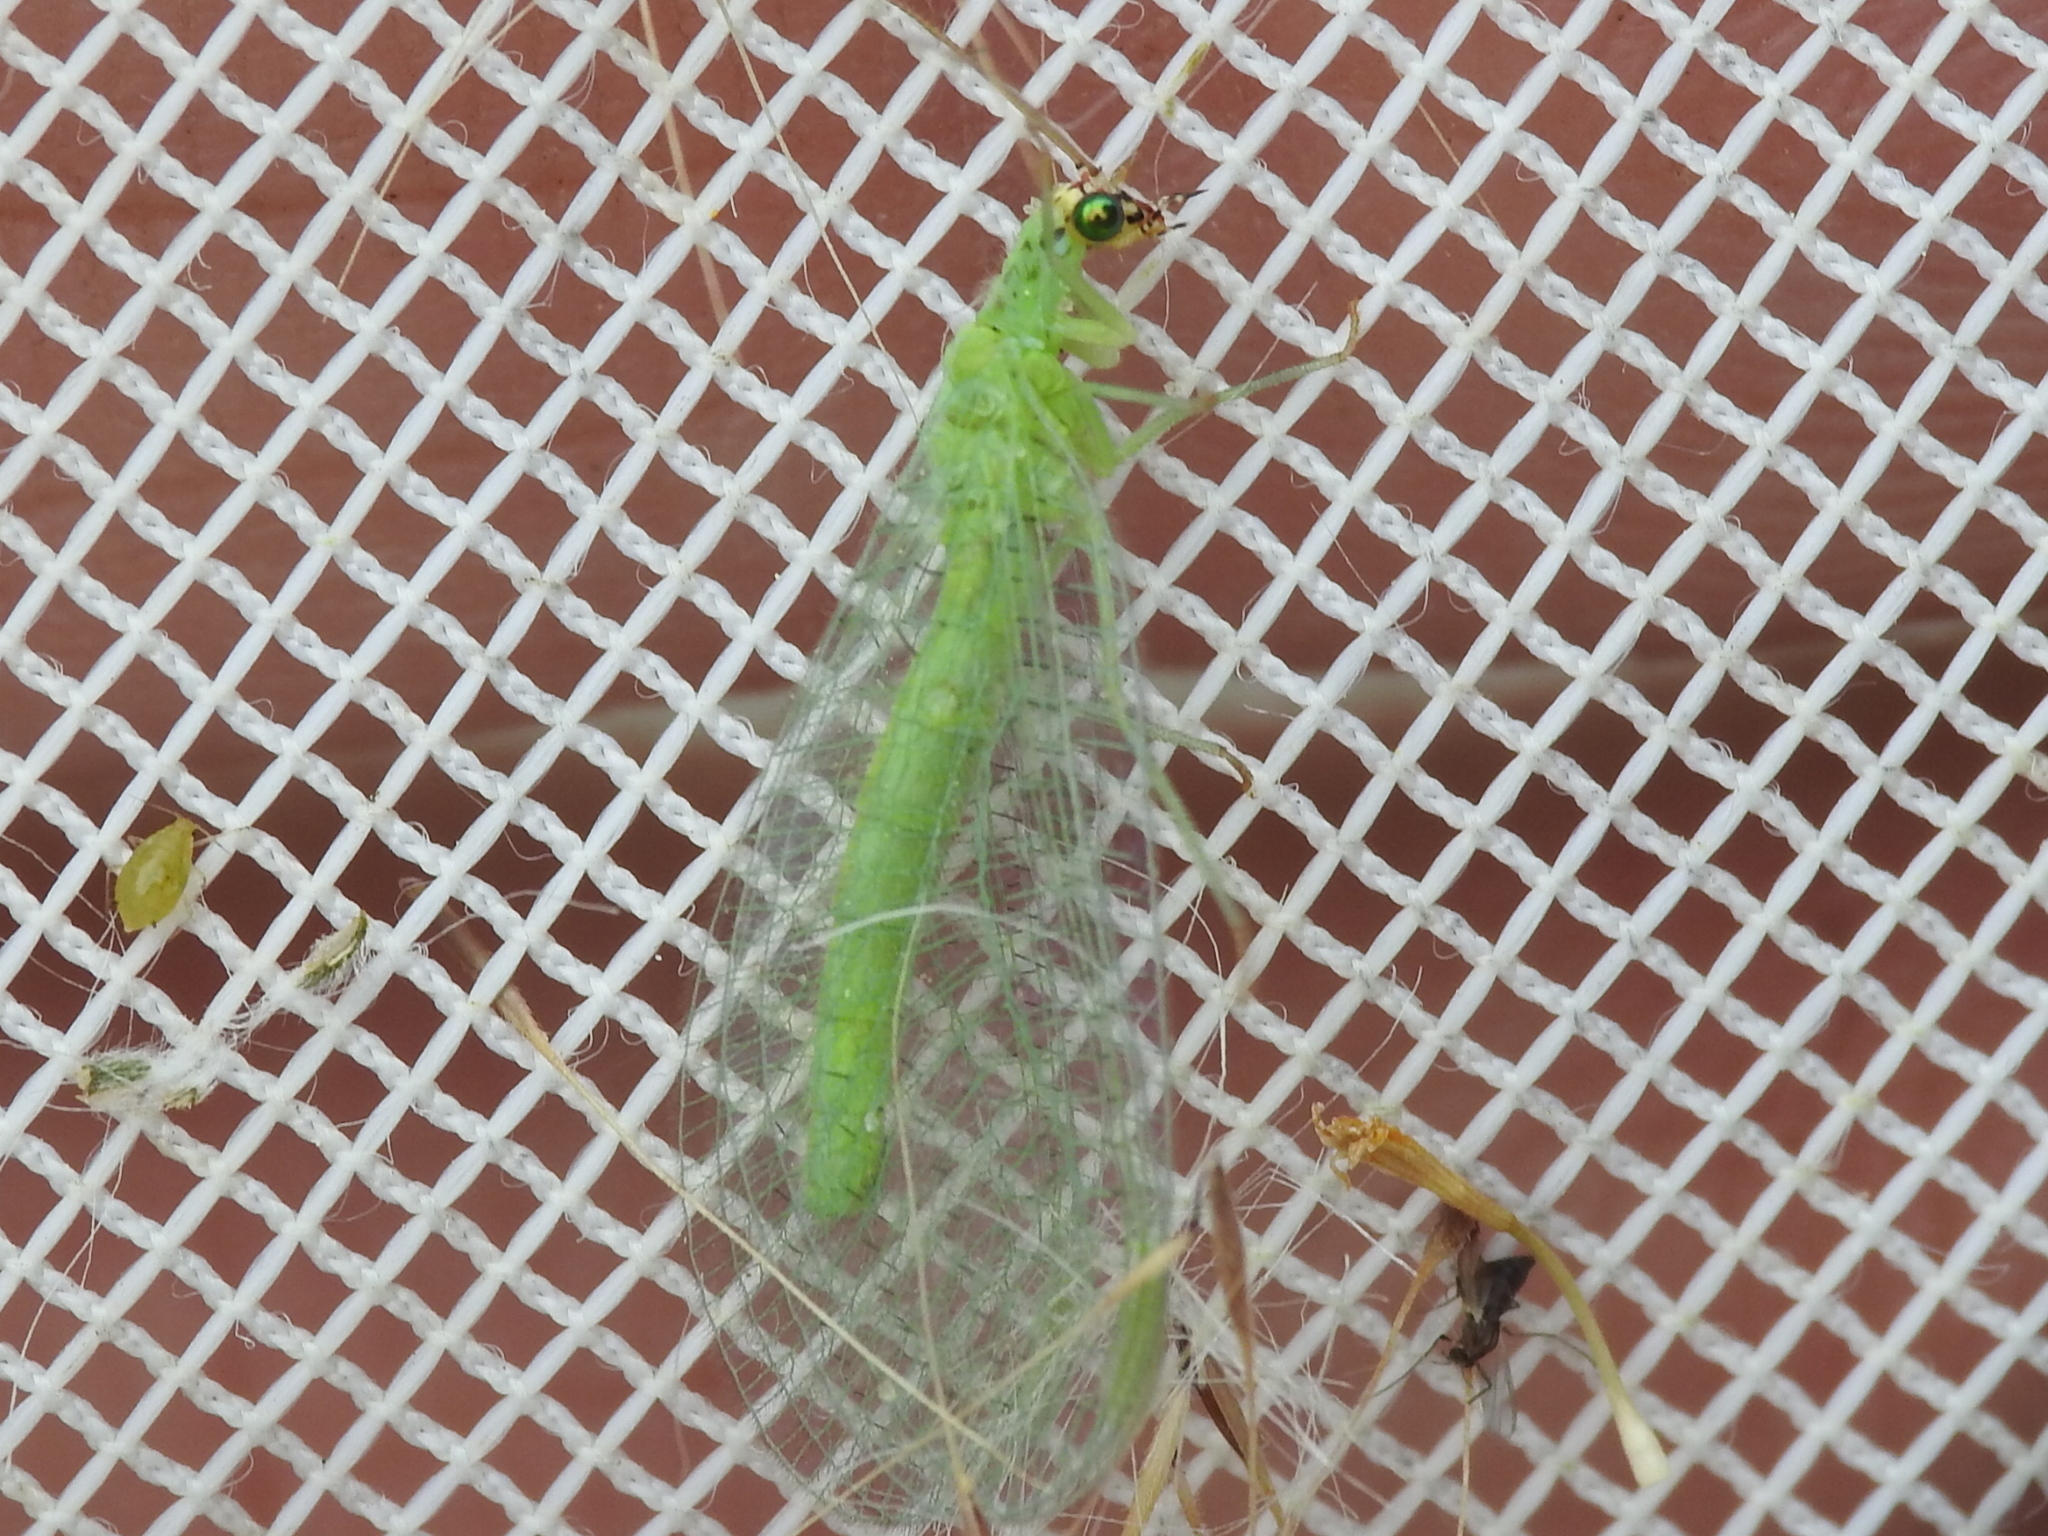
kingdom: Animalia
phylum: Arthropoda
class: Insecta
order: Neuroptera
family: Chrysopidae
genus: Chrysopa
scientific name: Chrysopa oculata
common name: Golden-eyed lacewing
